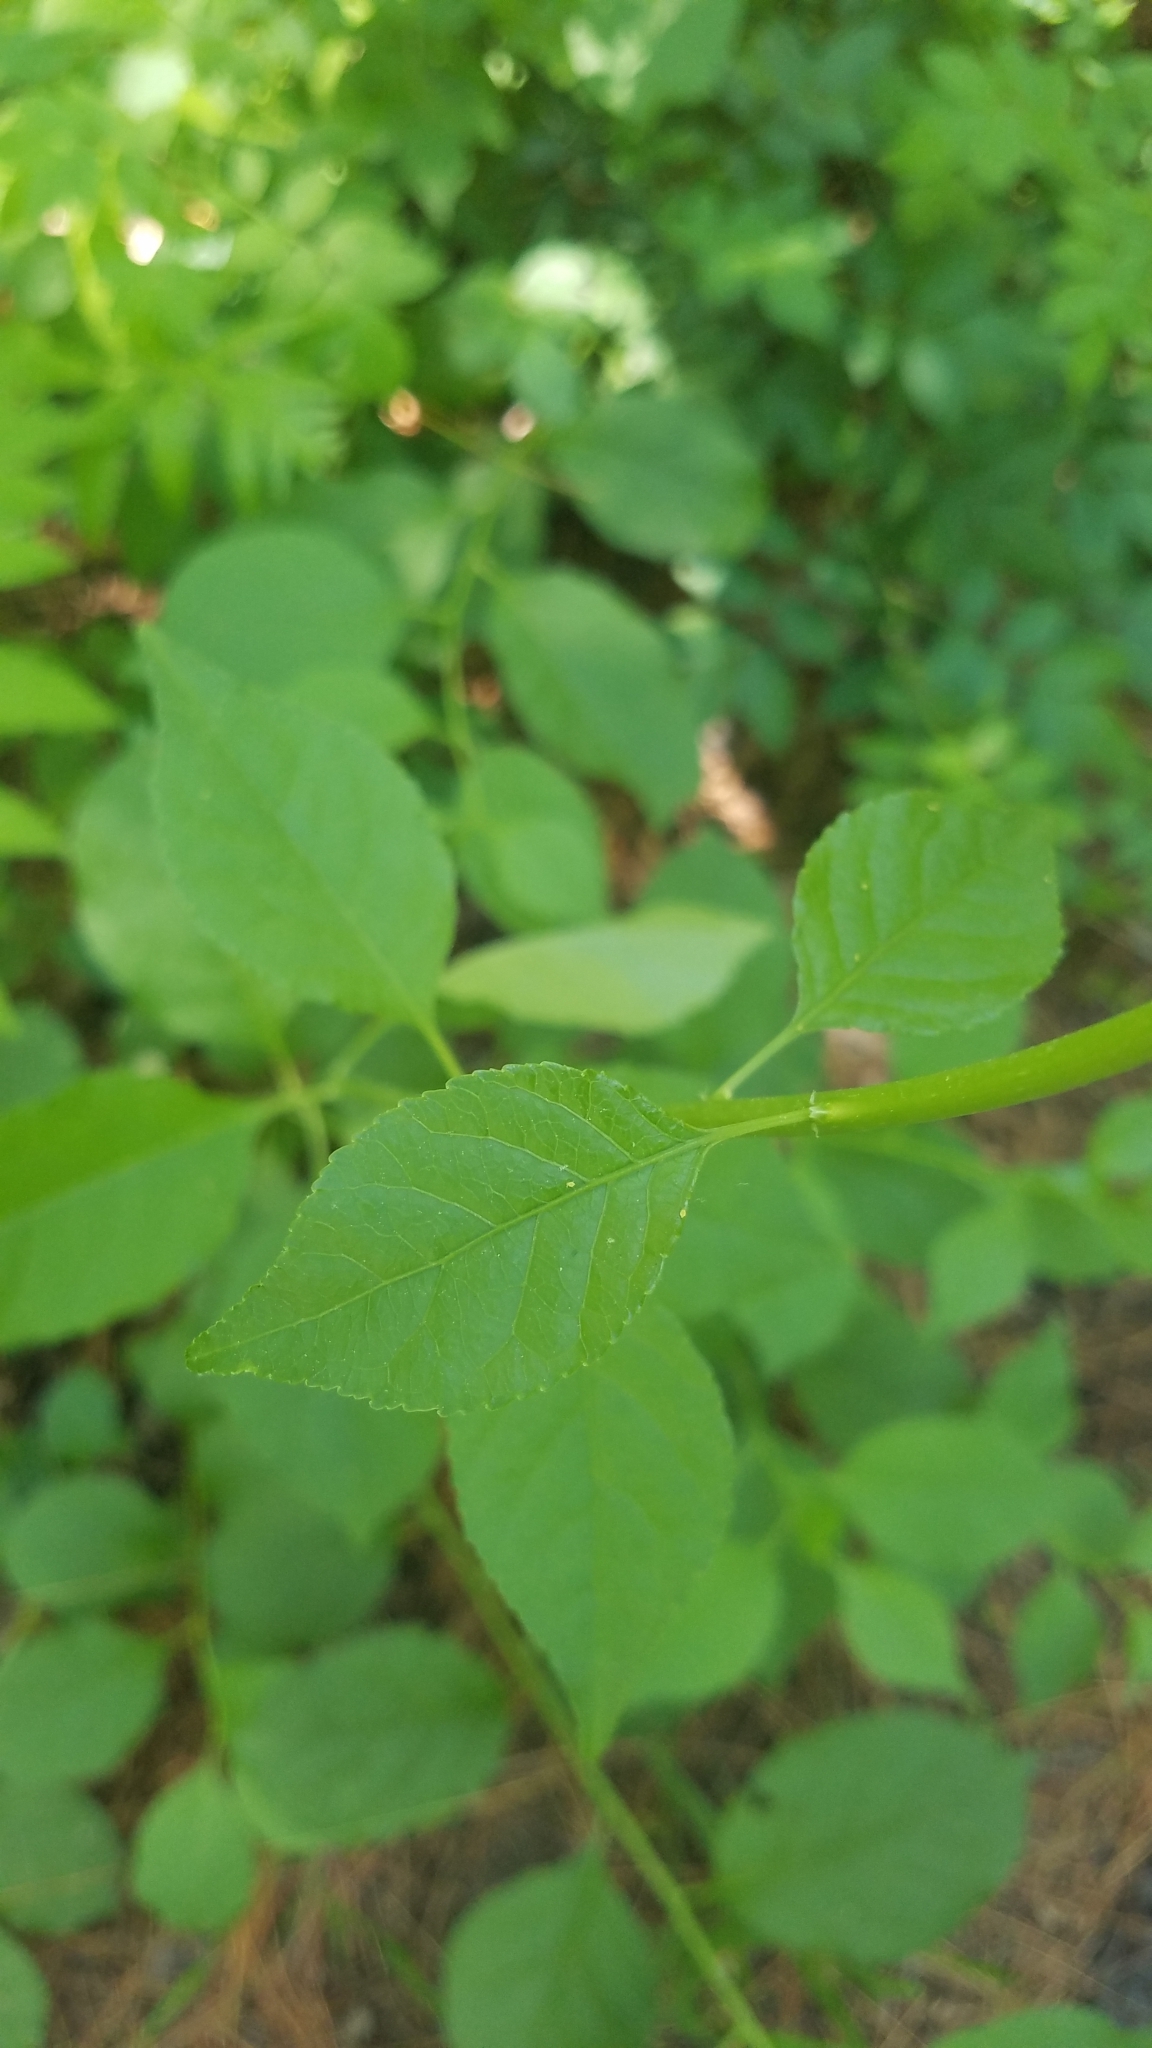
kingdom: Plantae
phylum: Tracheophyta
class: Magnoliopsida
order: Celastrales
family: Celastraceae
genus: Celastrus
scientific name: Celastrus orbiculatus
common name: Oriental bittersweet
